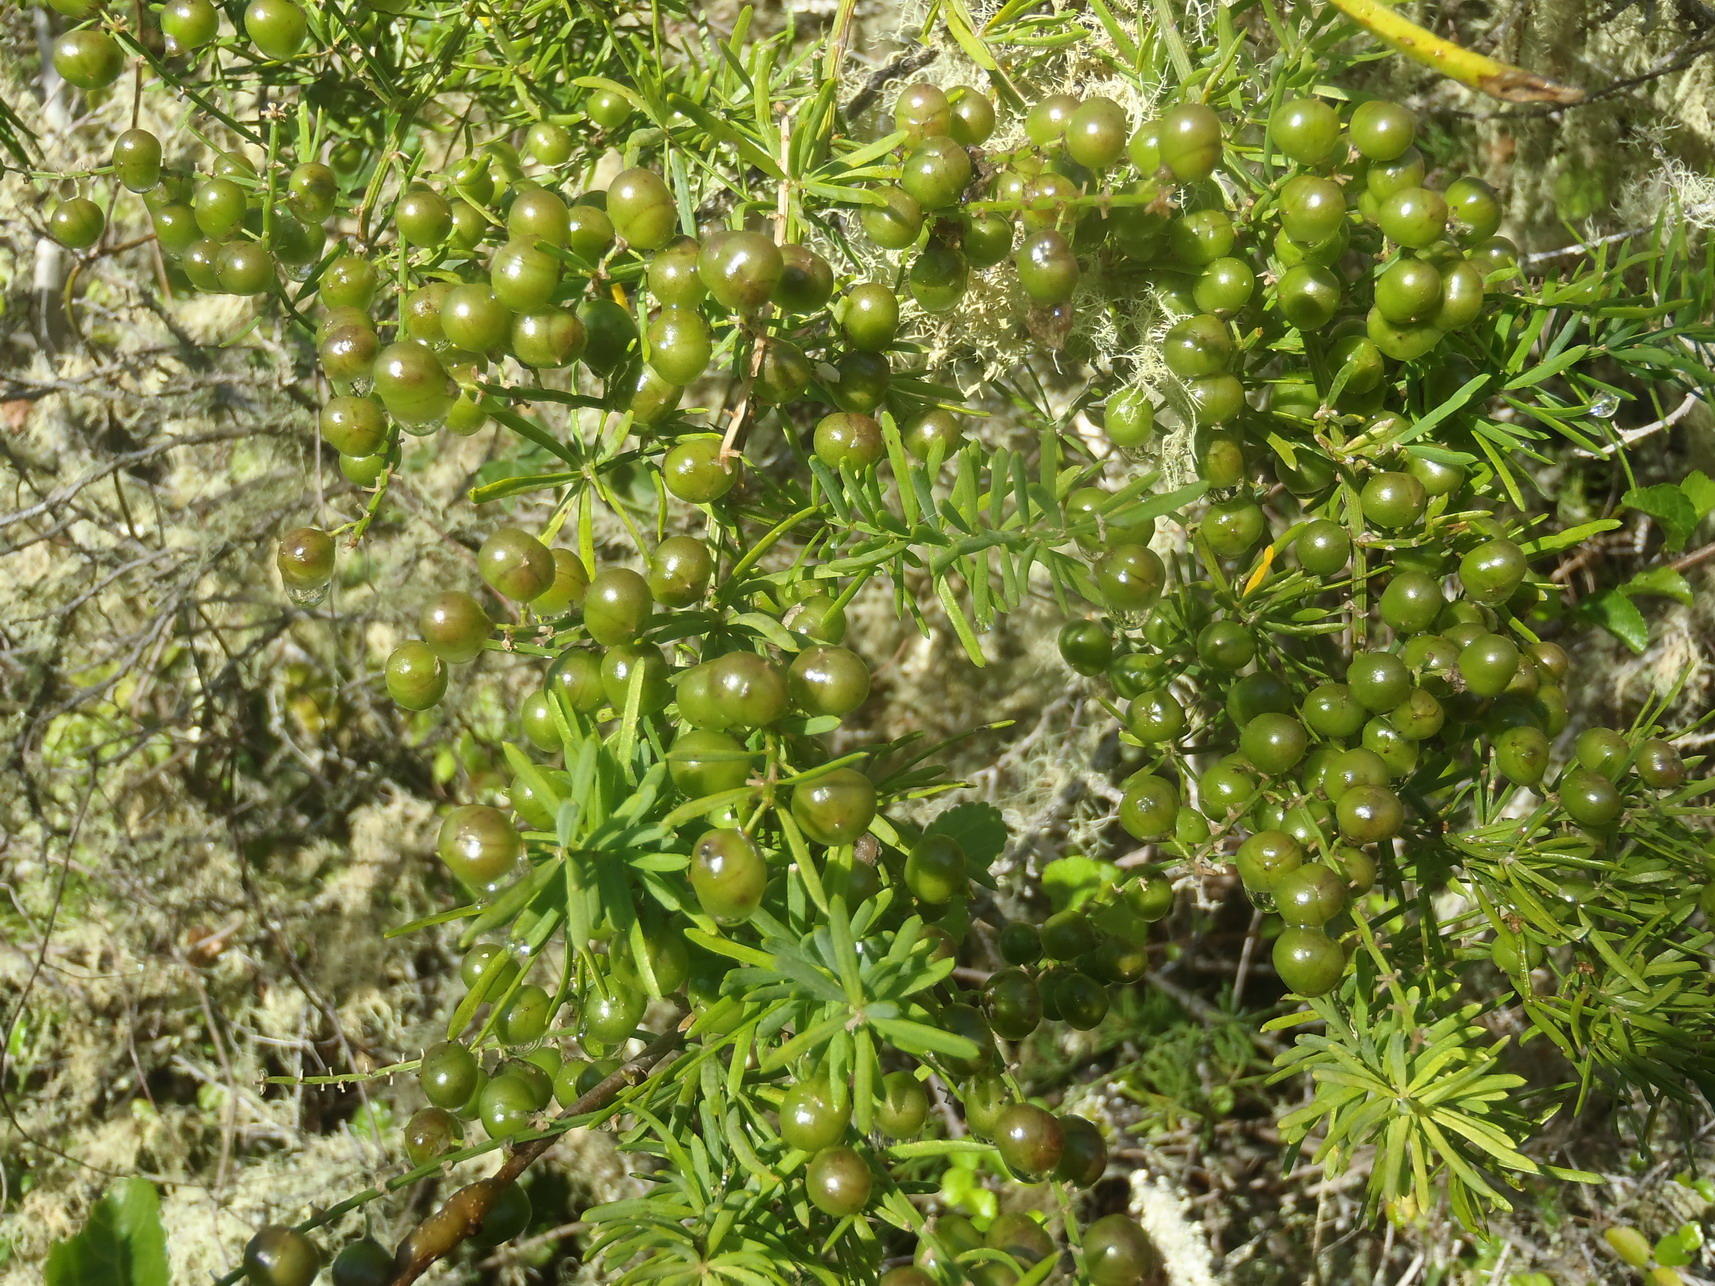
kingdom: Plantae
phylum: Tracheophyta
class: Liliopsida
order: Asparagales
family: Asparagaceae
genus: Asparagus
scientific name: Asparagus africanus
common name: Asparagus-fern
